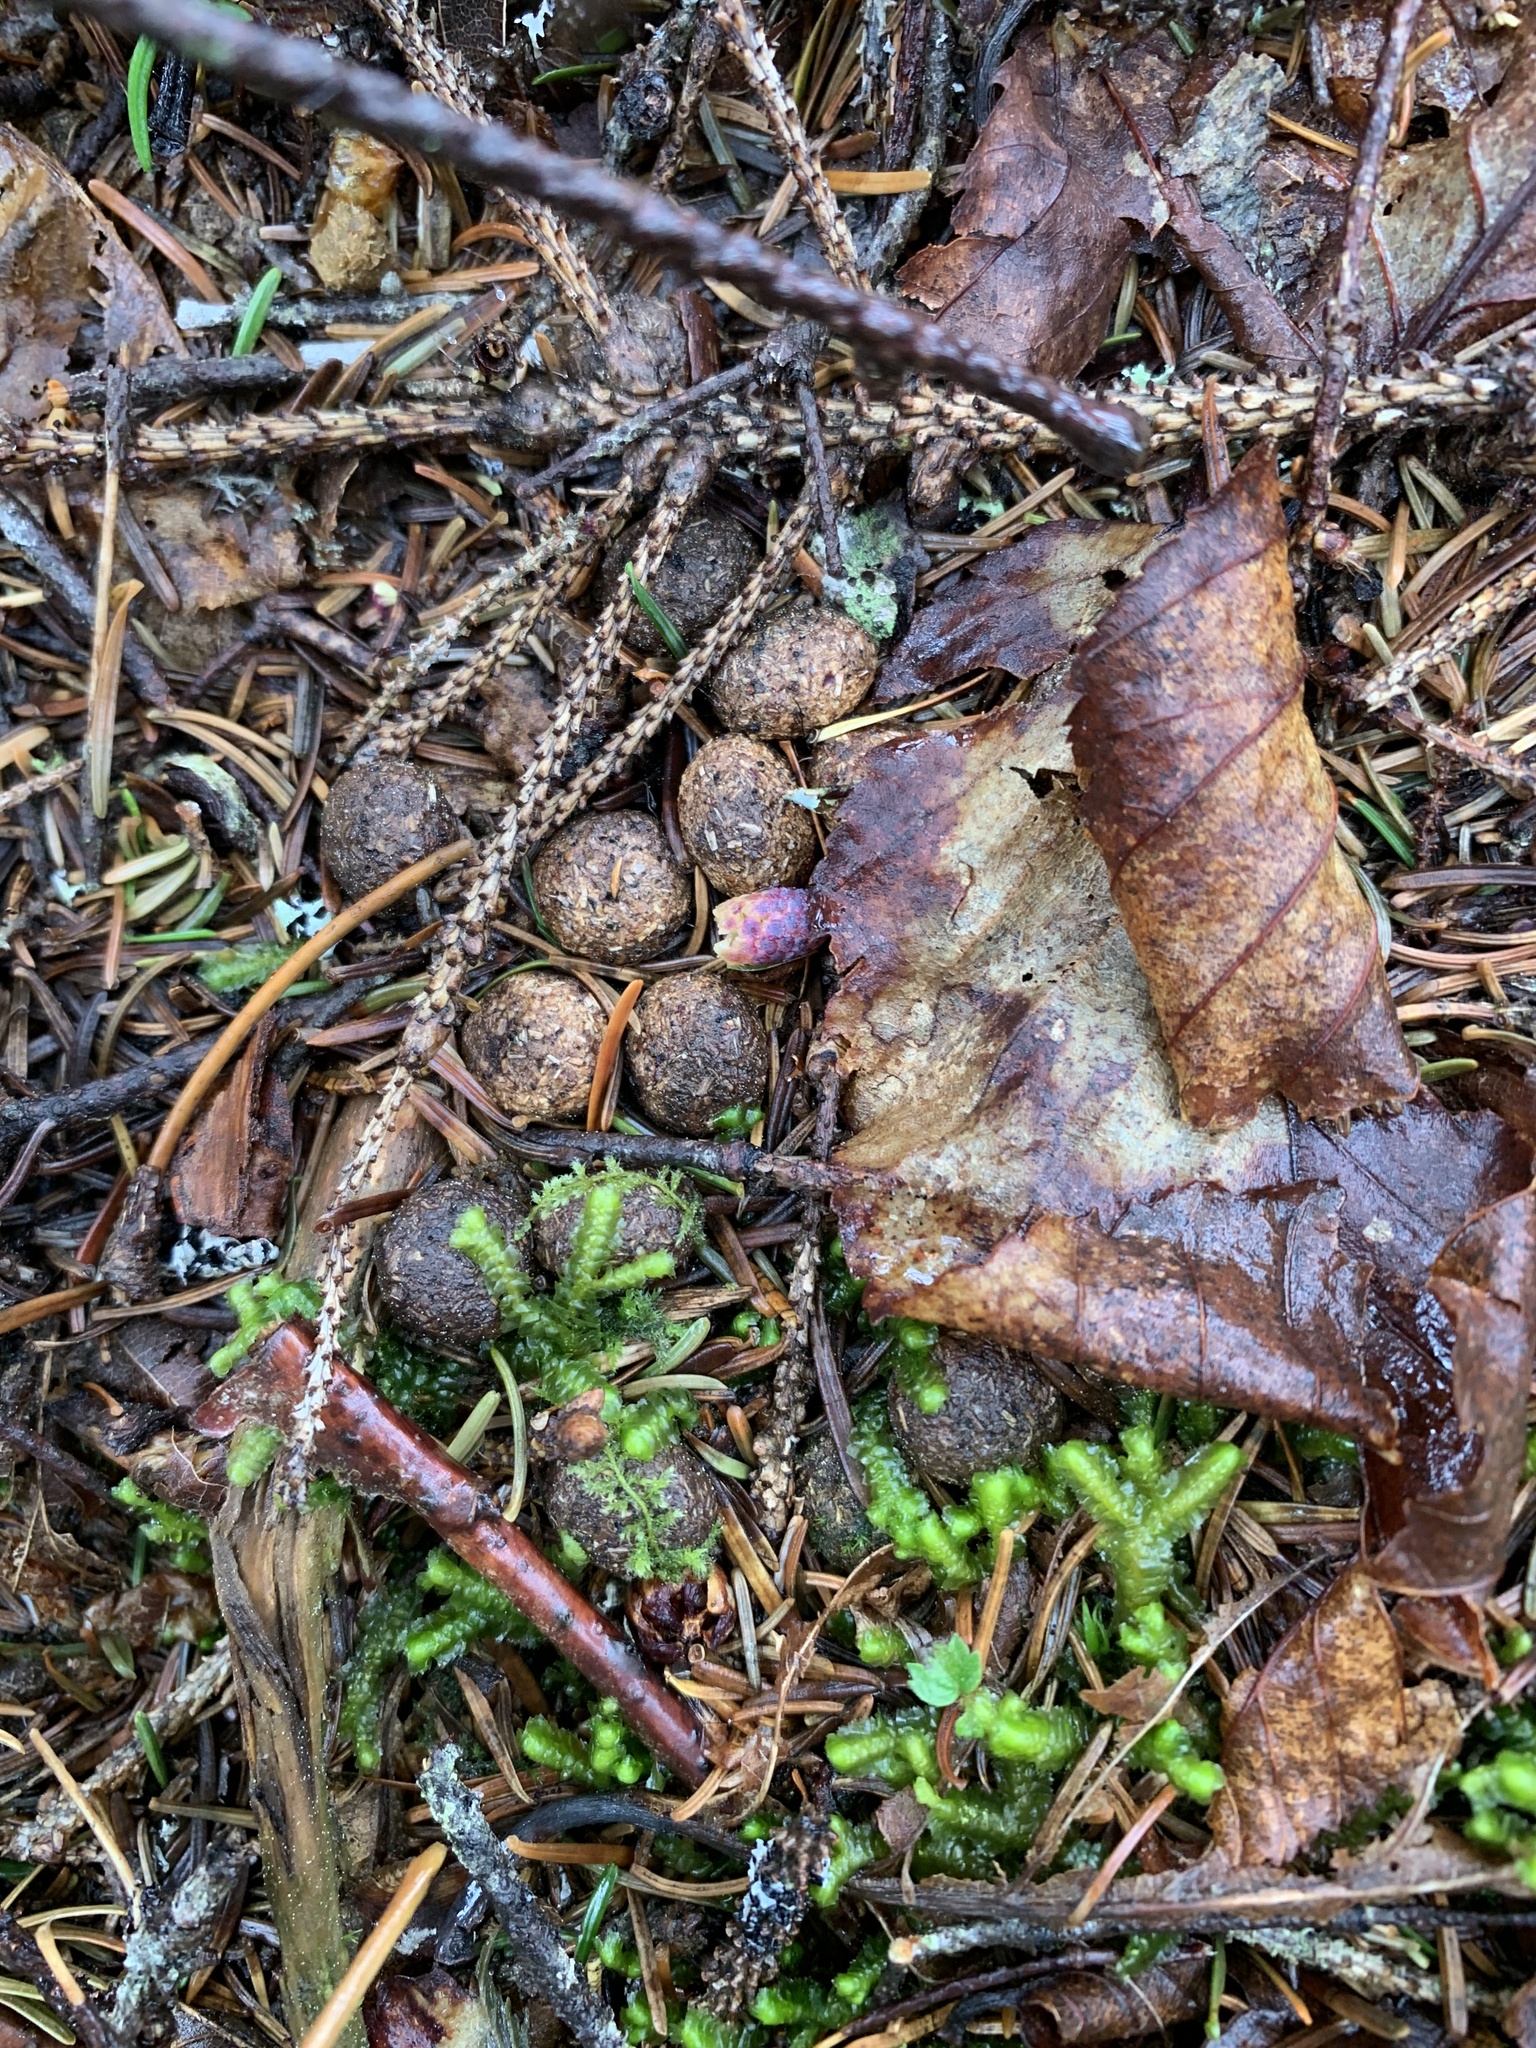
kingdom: Animalia
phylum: Chordata
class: Mammalia
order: Lagomorpha
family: Leporidae
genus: Lepus
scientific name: Lepus americanus
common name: Snowshoe hare
